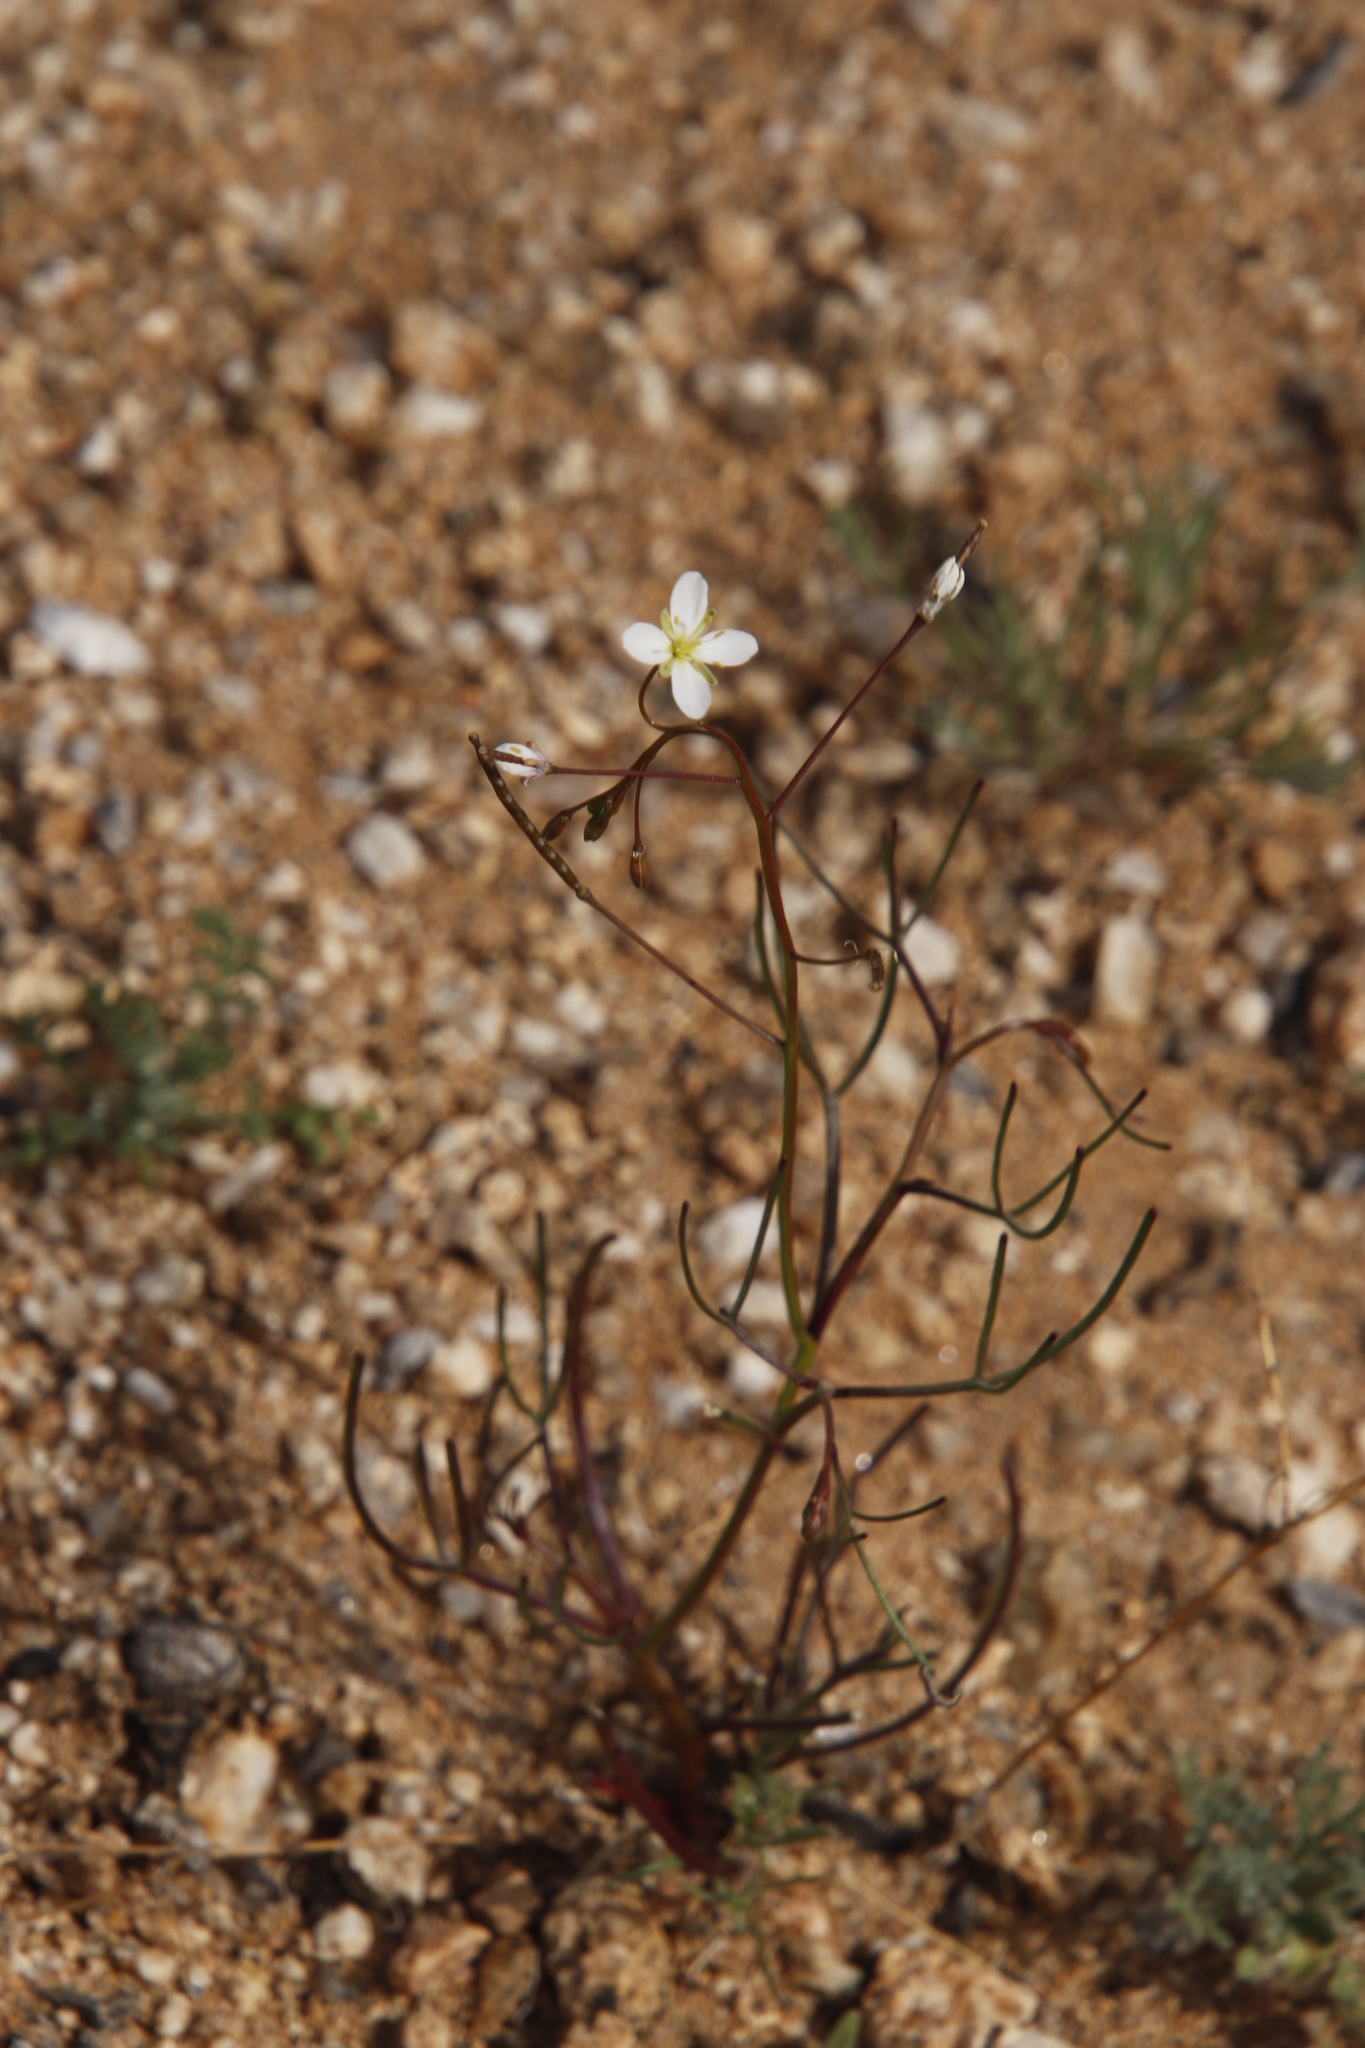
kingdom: Plantae
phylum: Tracheophyta
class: Magnoliopsida
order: Brassicales
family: Brassicaceae
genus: Heliophila
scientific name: Heliophila variabilis
